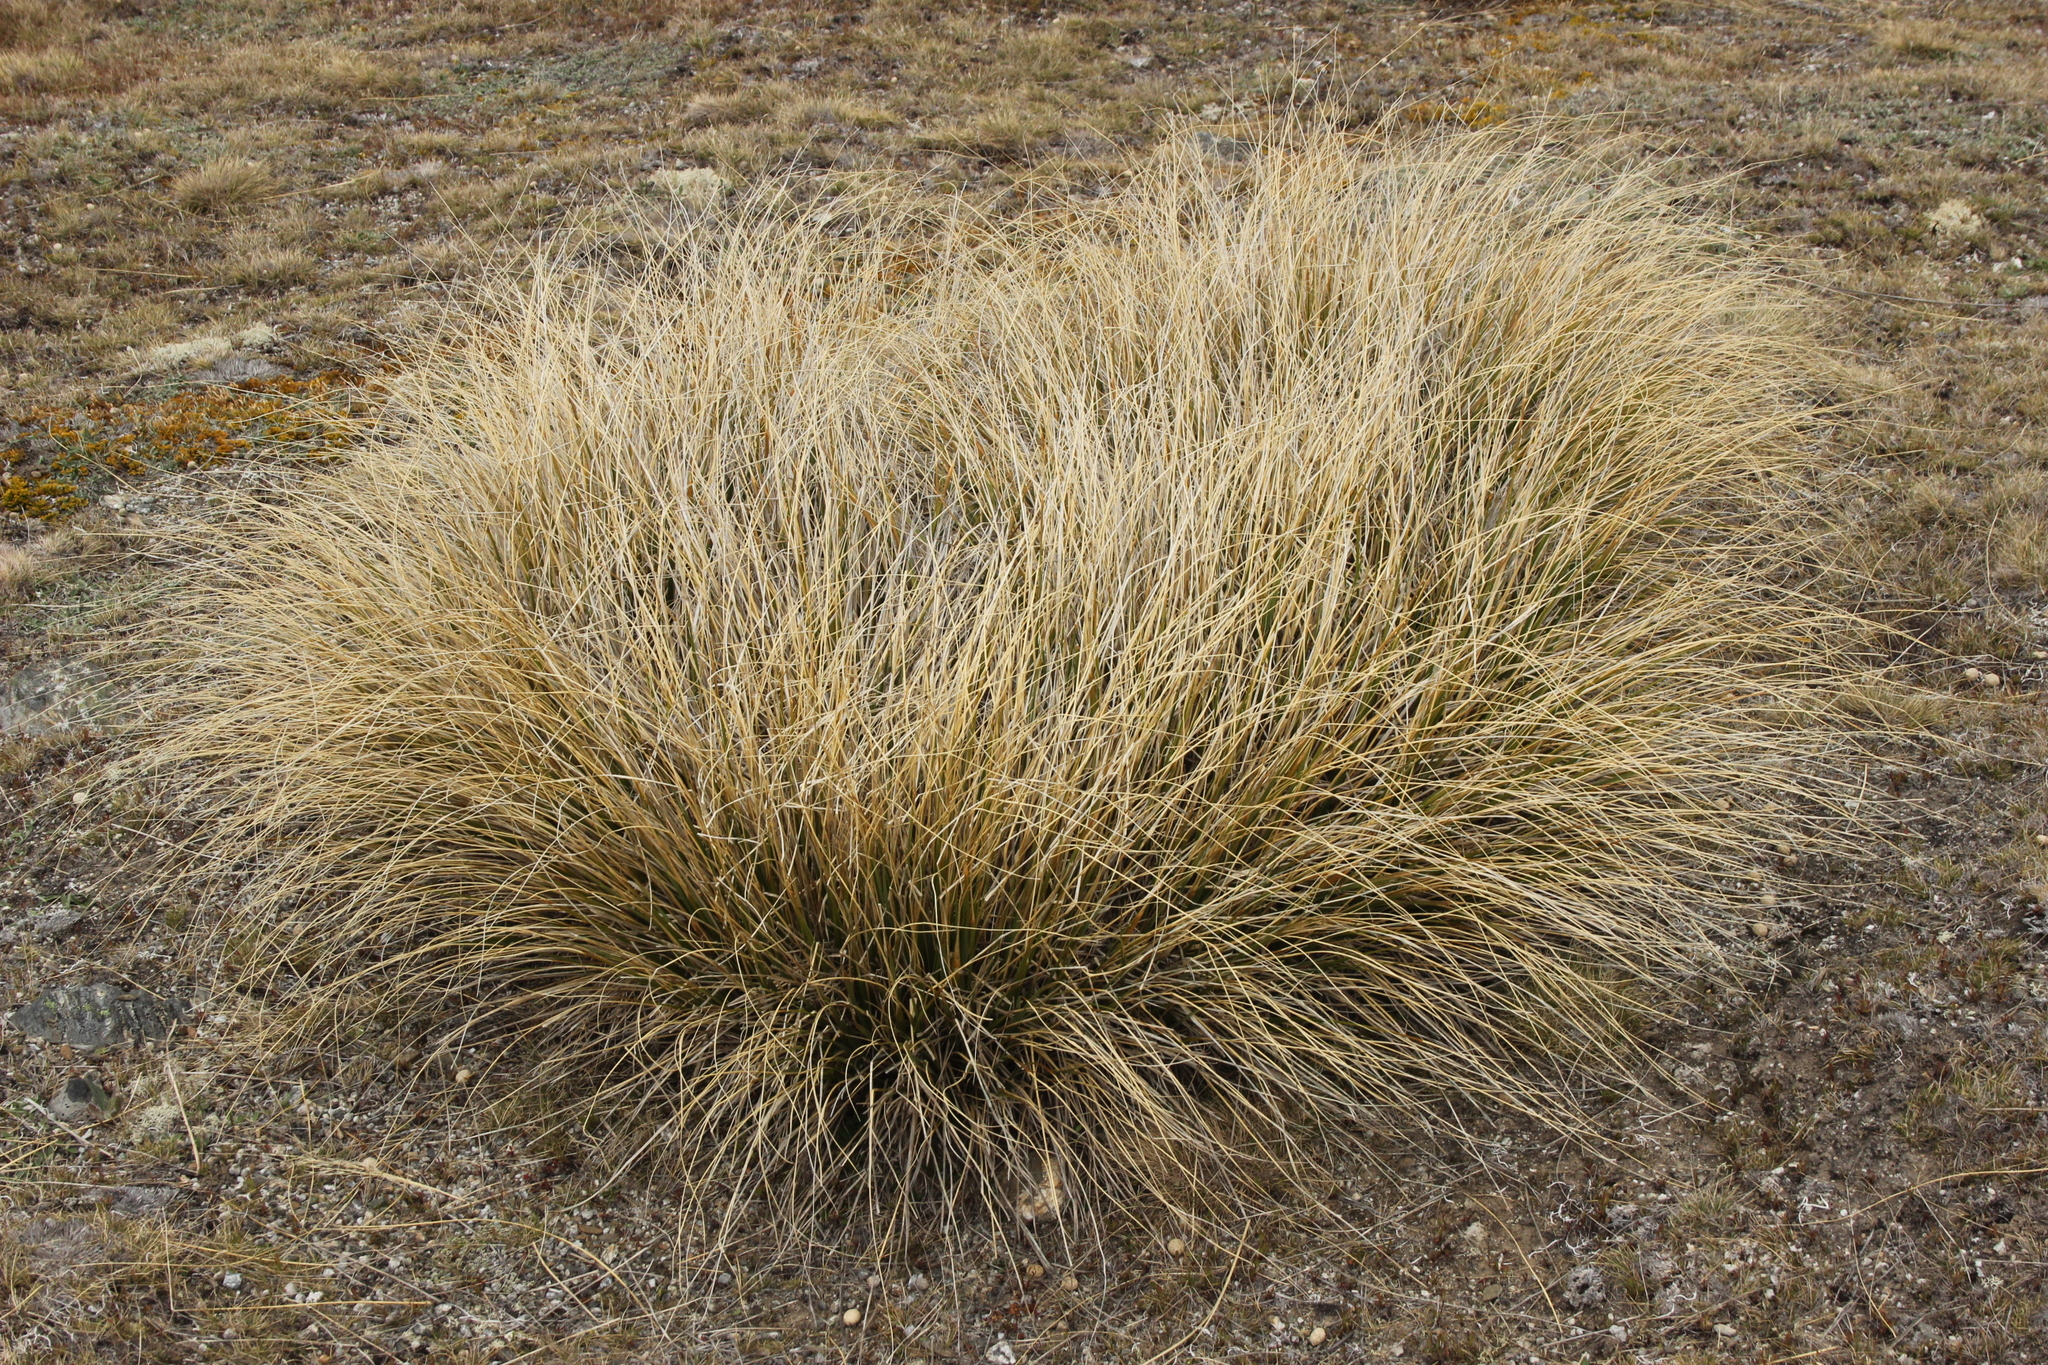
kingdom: Plantae
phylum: Tracheophyta
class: Liliopsida
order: Poales
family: Poaceae
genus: Chionochloa
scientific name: Chionochloa macra
